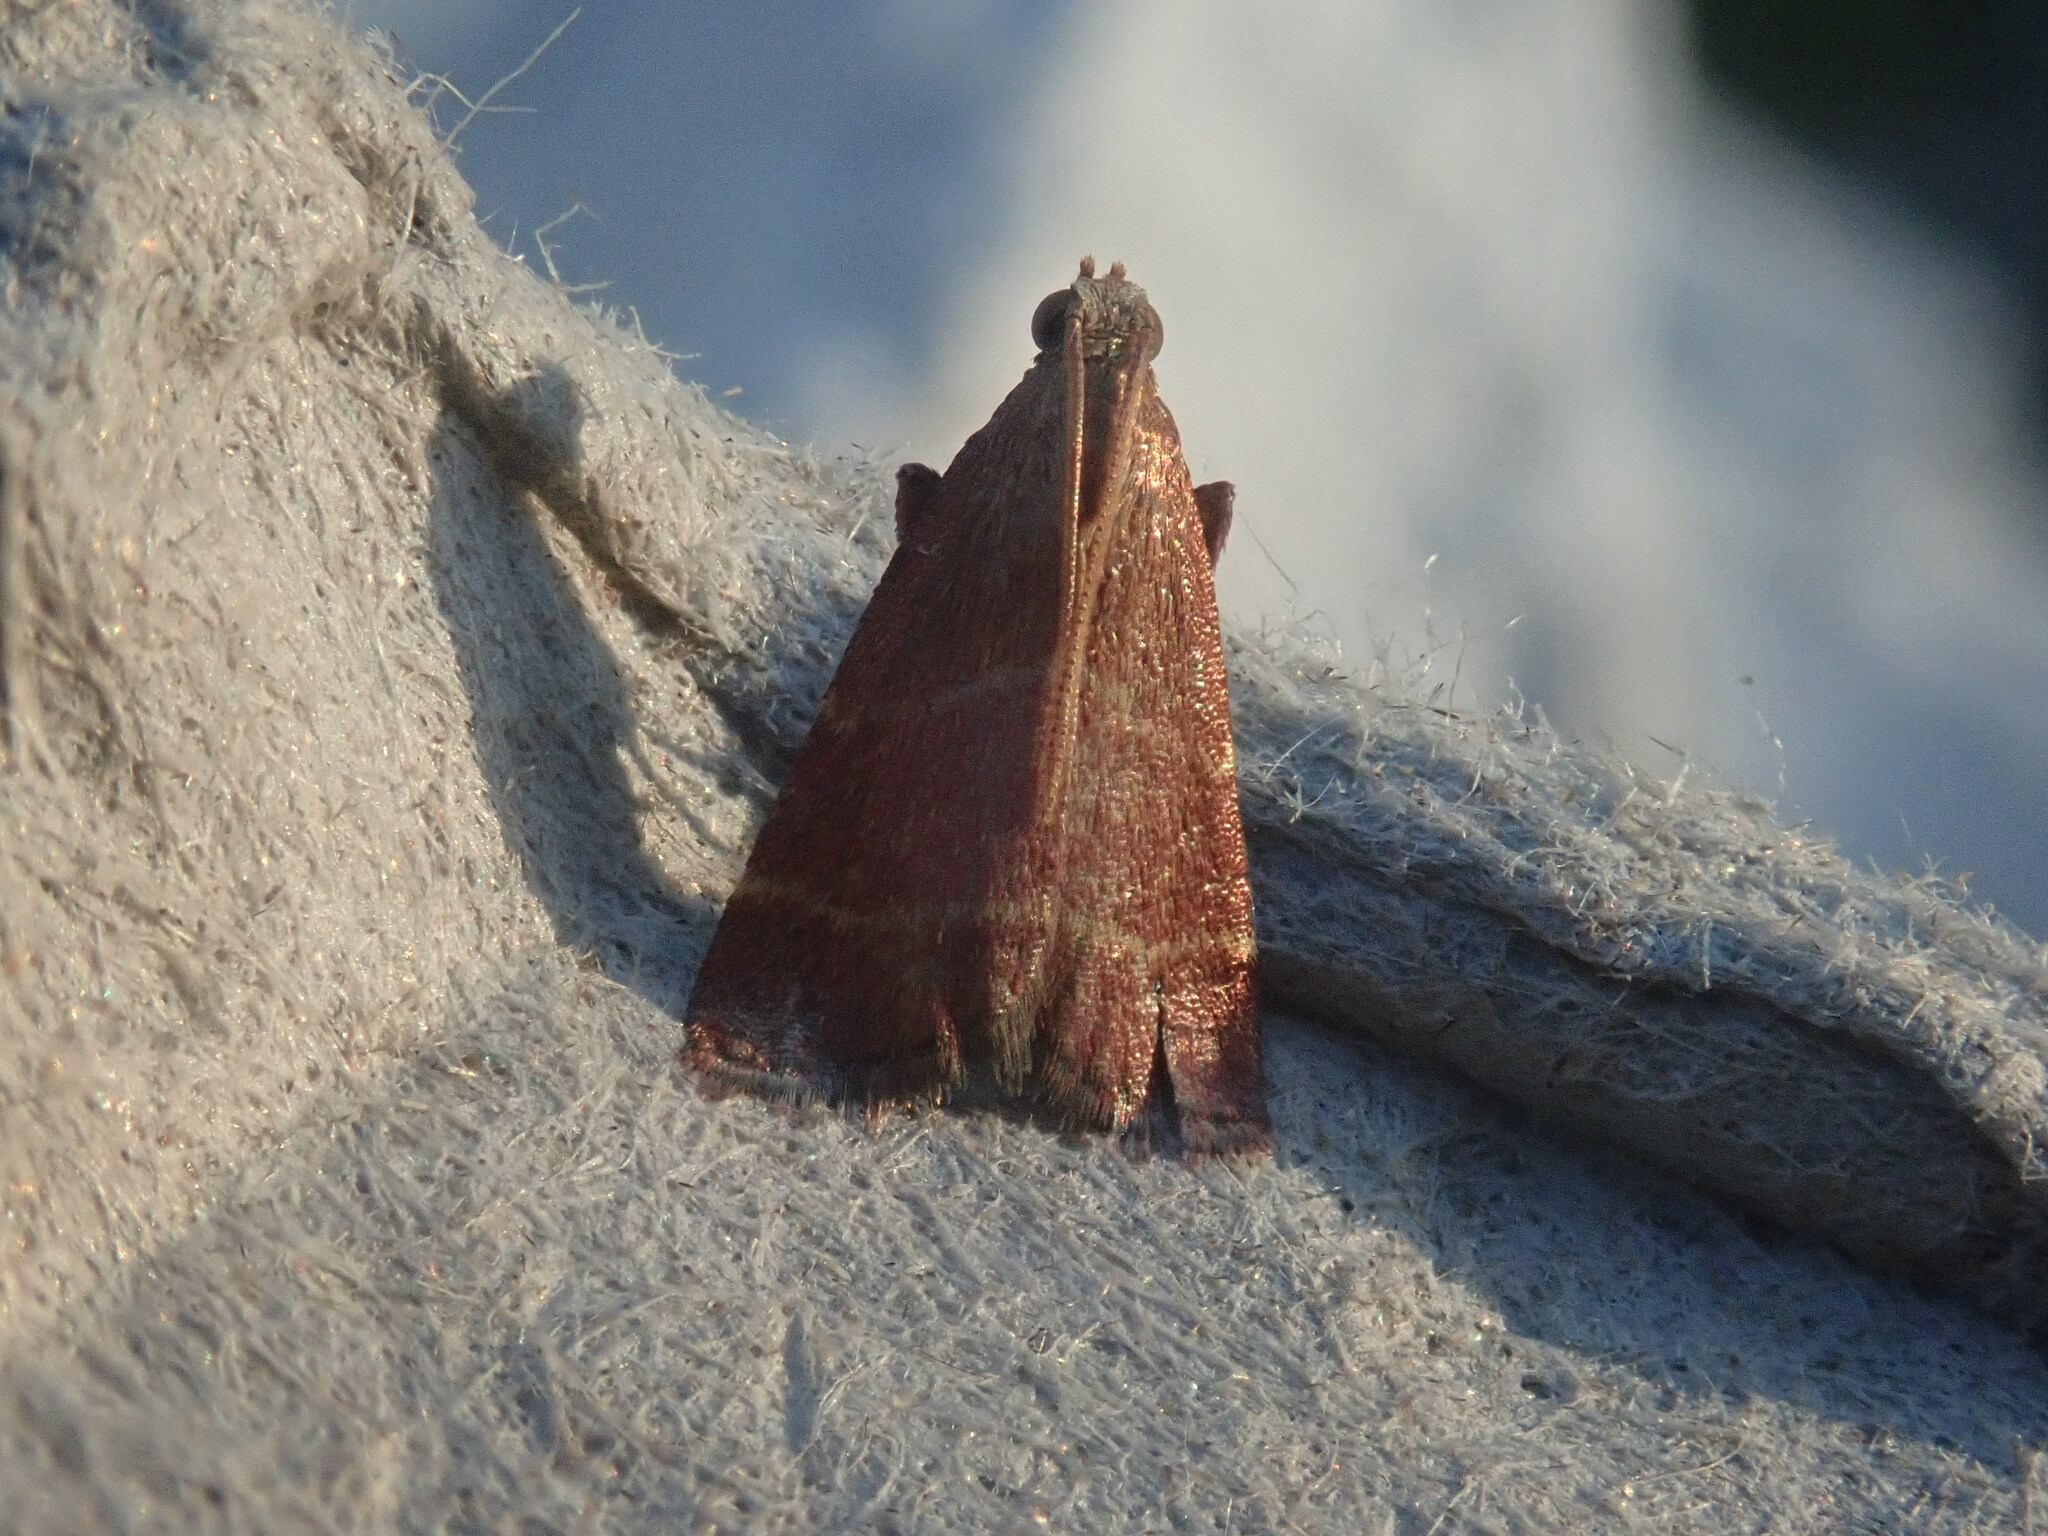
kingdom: Animalia
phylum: Arthropoda
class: Insecta
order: Lepidoptera
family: Pyralidae
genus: Arta
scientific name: Arta statalis
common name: Posturing arta moth
